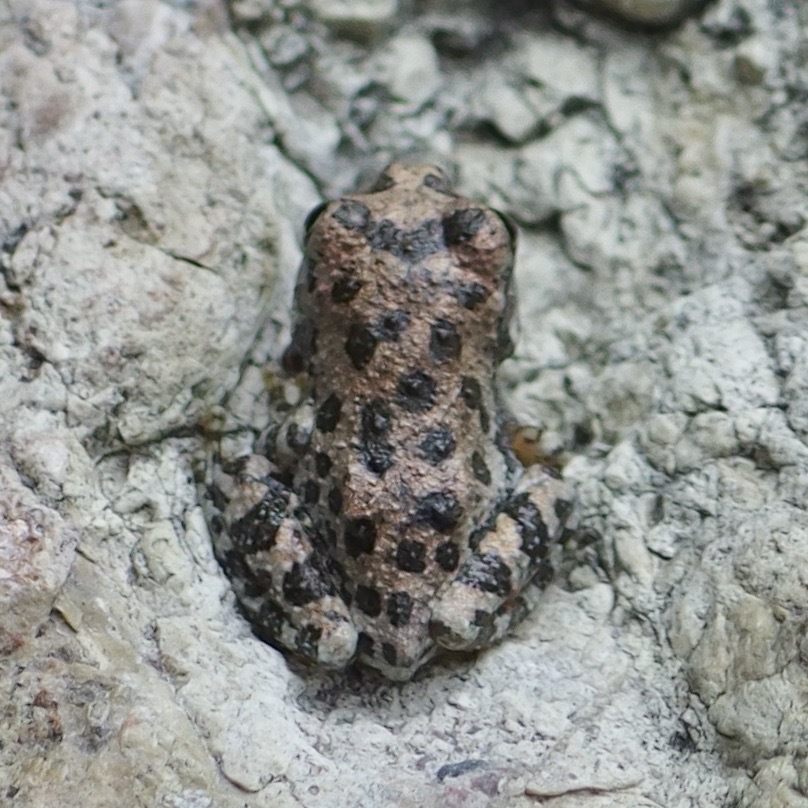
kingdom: Animalia
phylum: Chordata
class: Amphibia
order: Anura
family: Hylidae
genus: Dryophytes
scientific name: Dryophytes arenicolor
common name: Canyon treefrog
